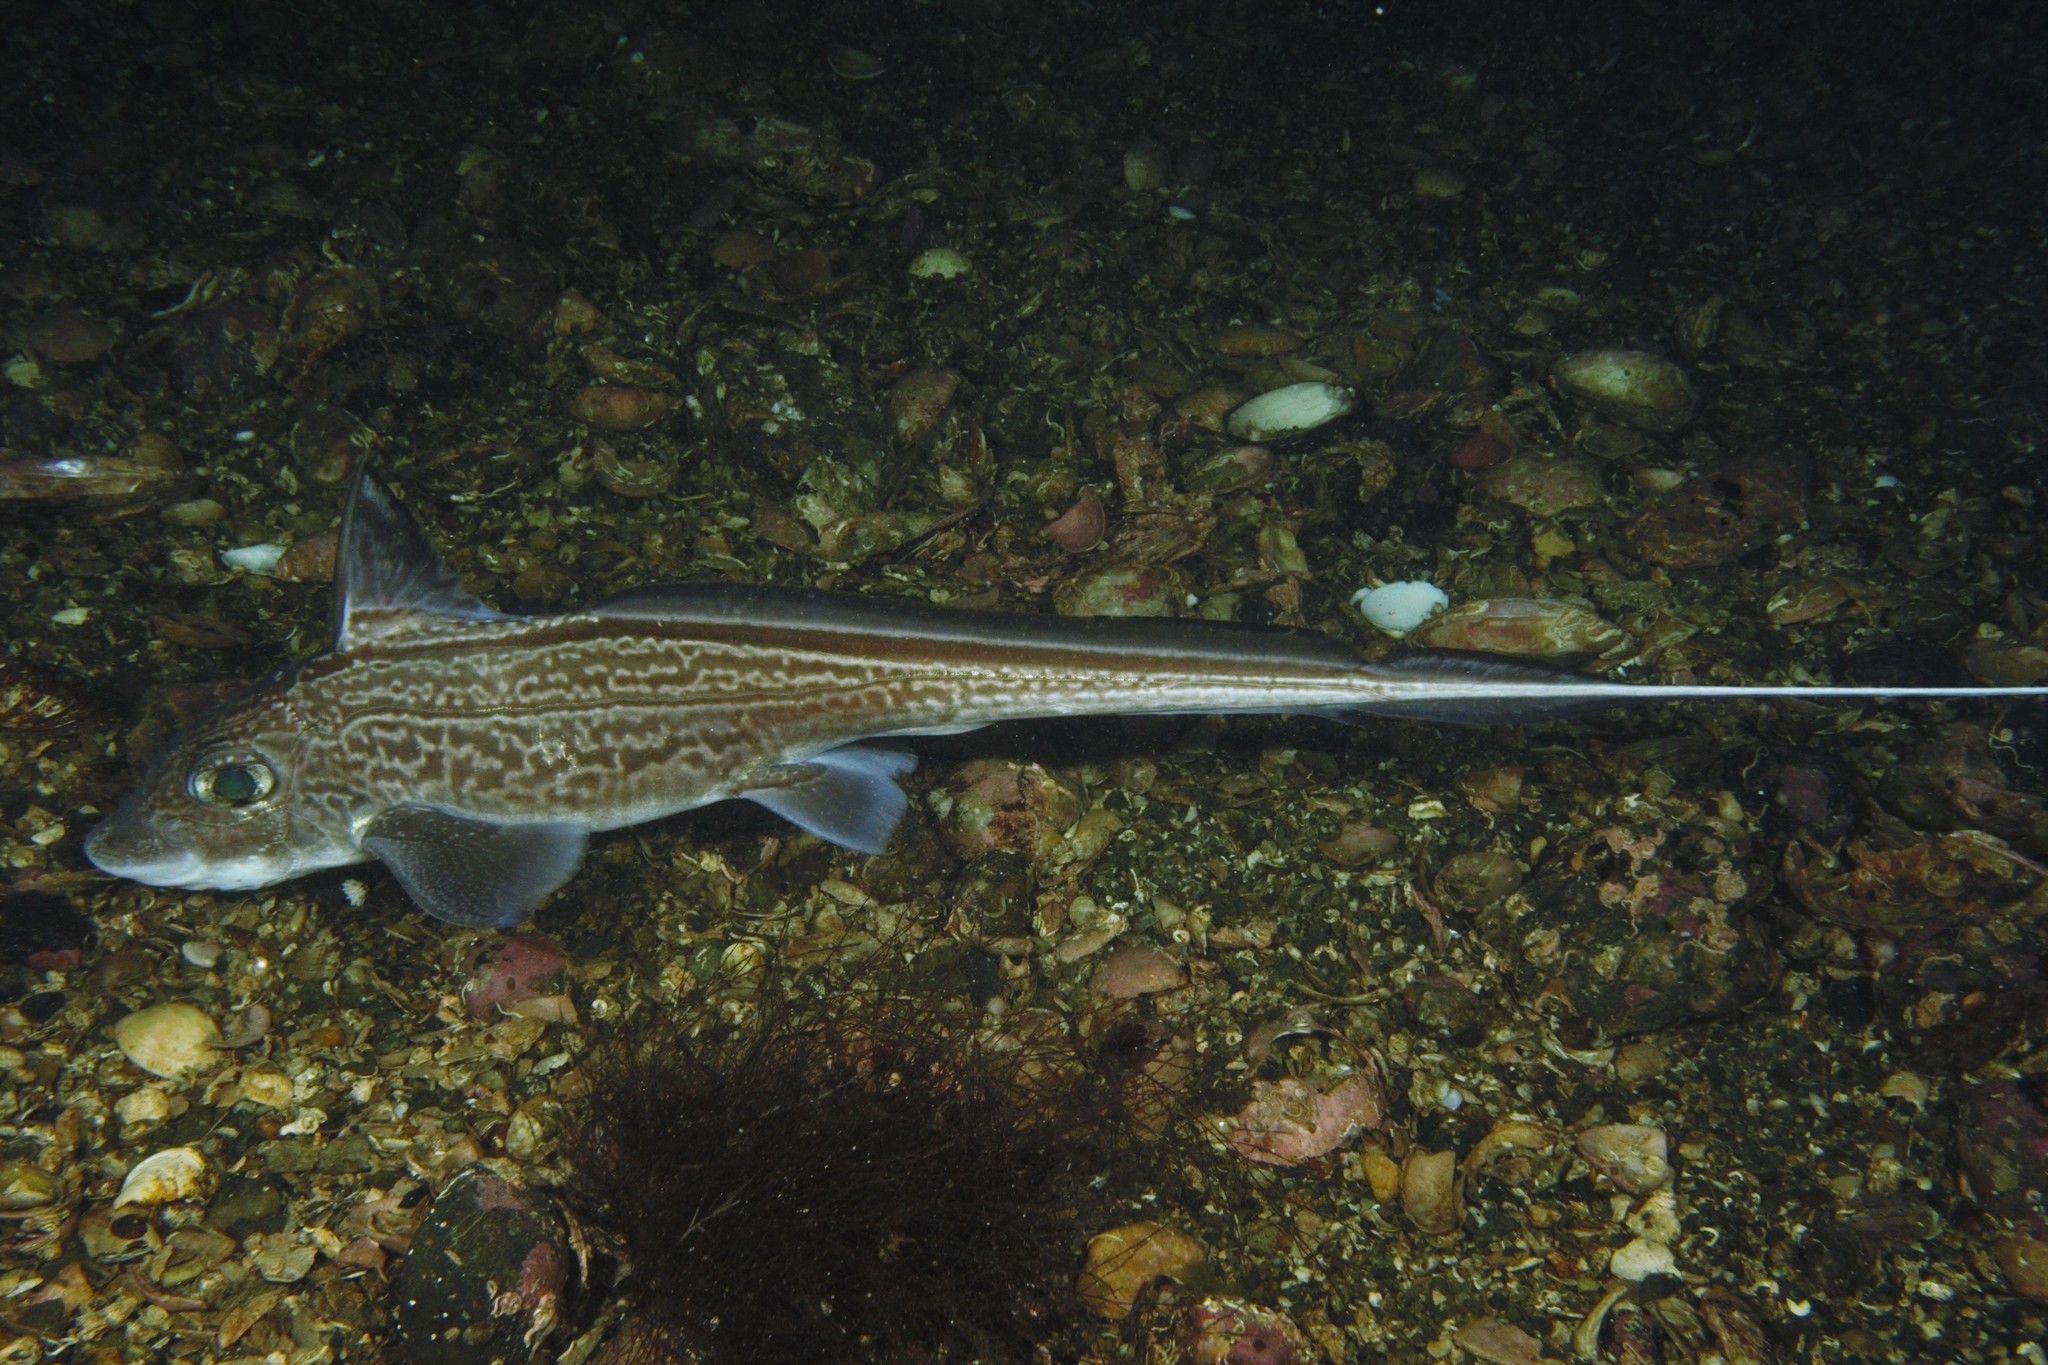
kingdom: Animalia
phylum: Chordata
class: Holocephali
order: Chimaeriformes
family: Chimaeridae
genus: Chimaera
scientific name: Chimaera monstrosa
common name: Rabbitfish
